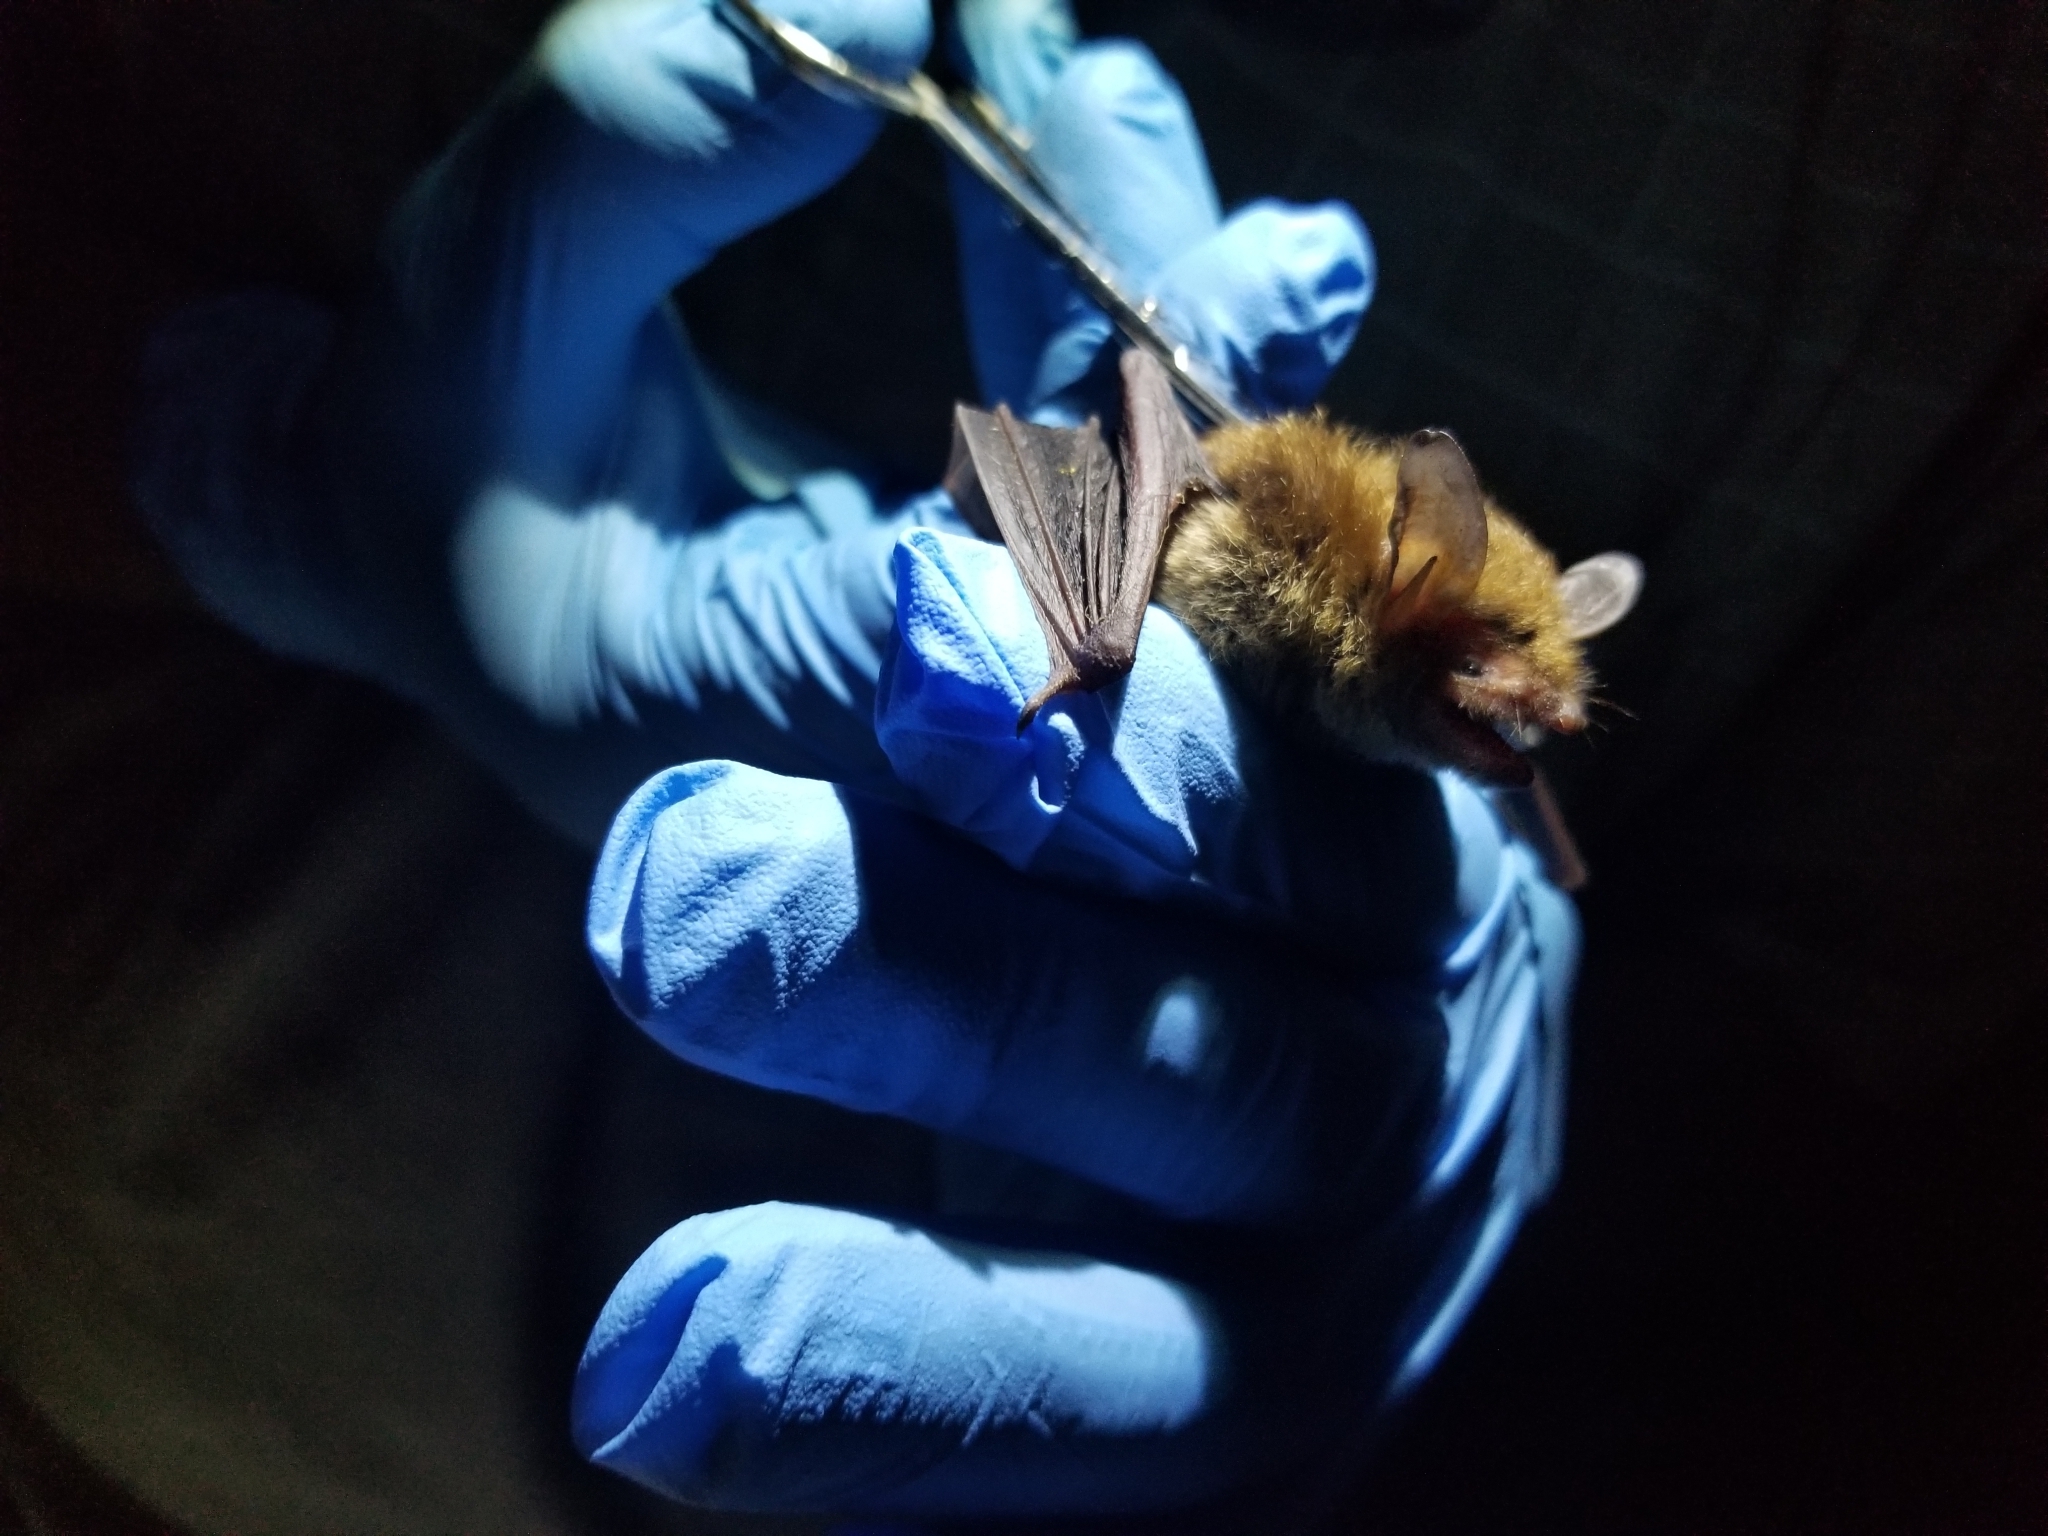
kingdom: Animalia
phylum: Chordata
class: Mammalia
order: Chiroptera
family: Vespertilionidae
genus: Myotis
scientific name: Myotis septentrionalis
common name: Northern myotis
